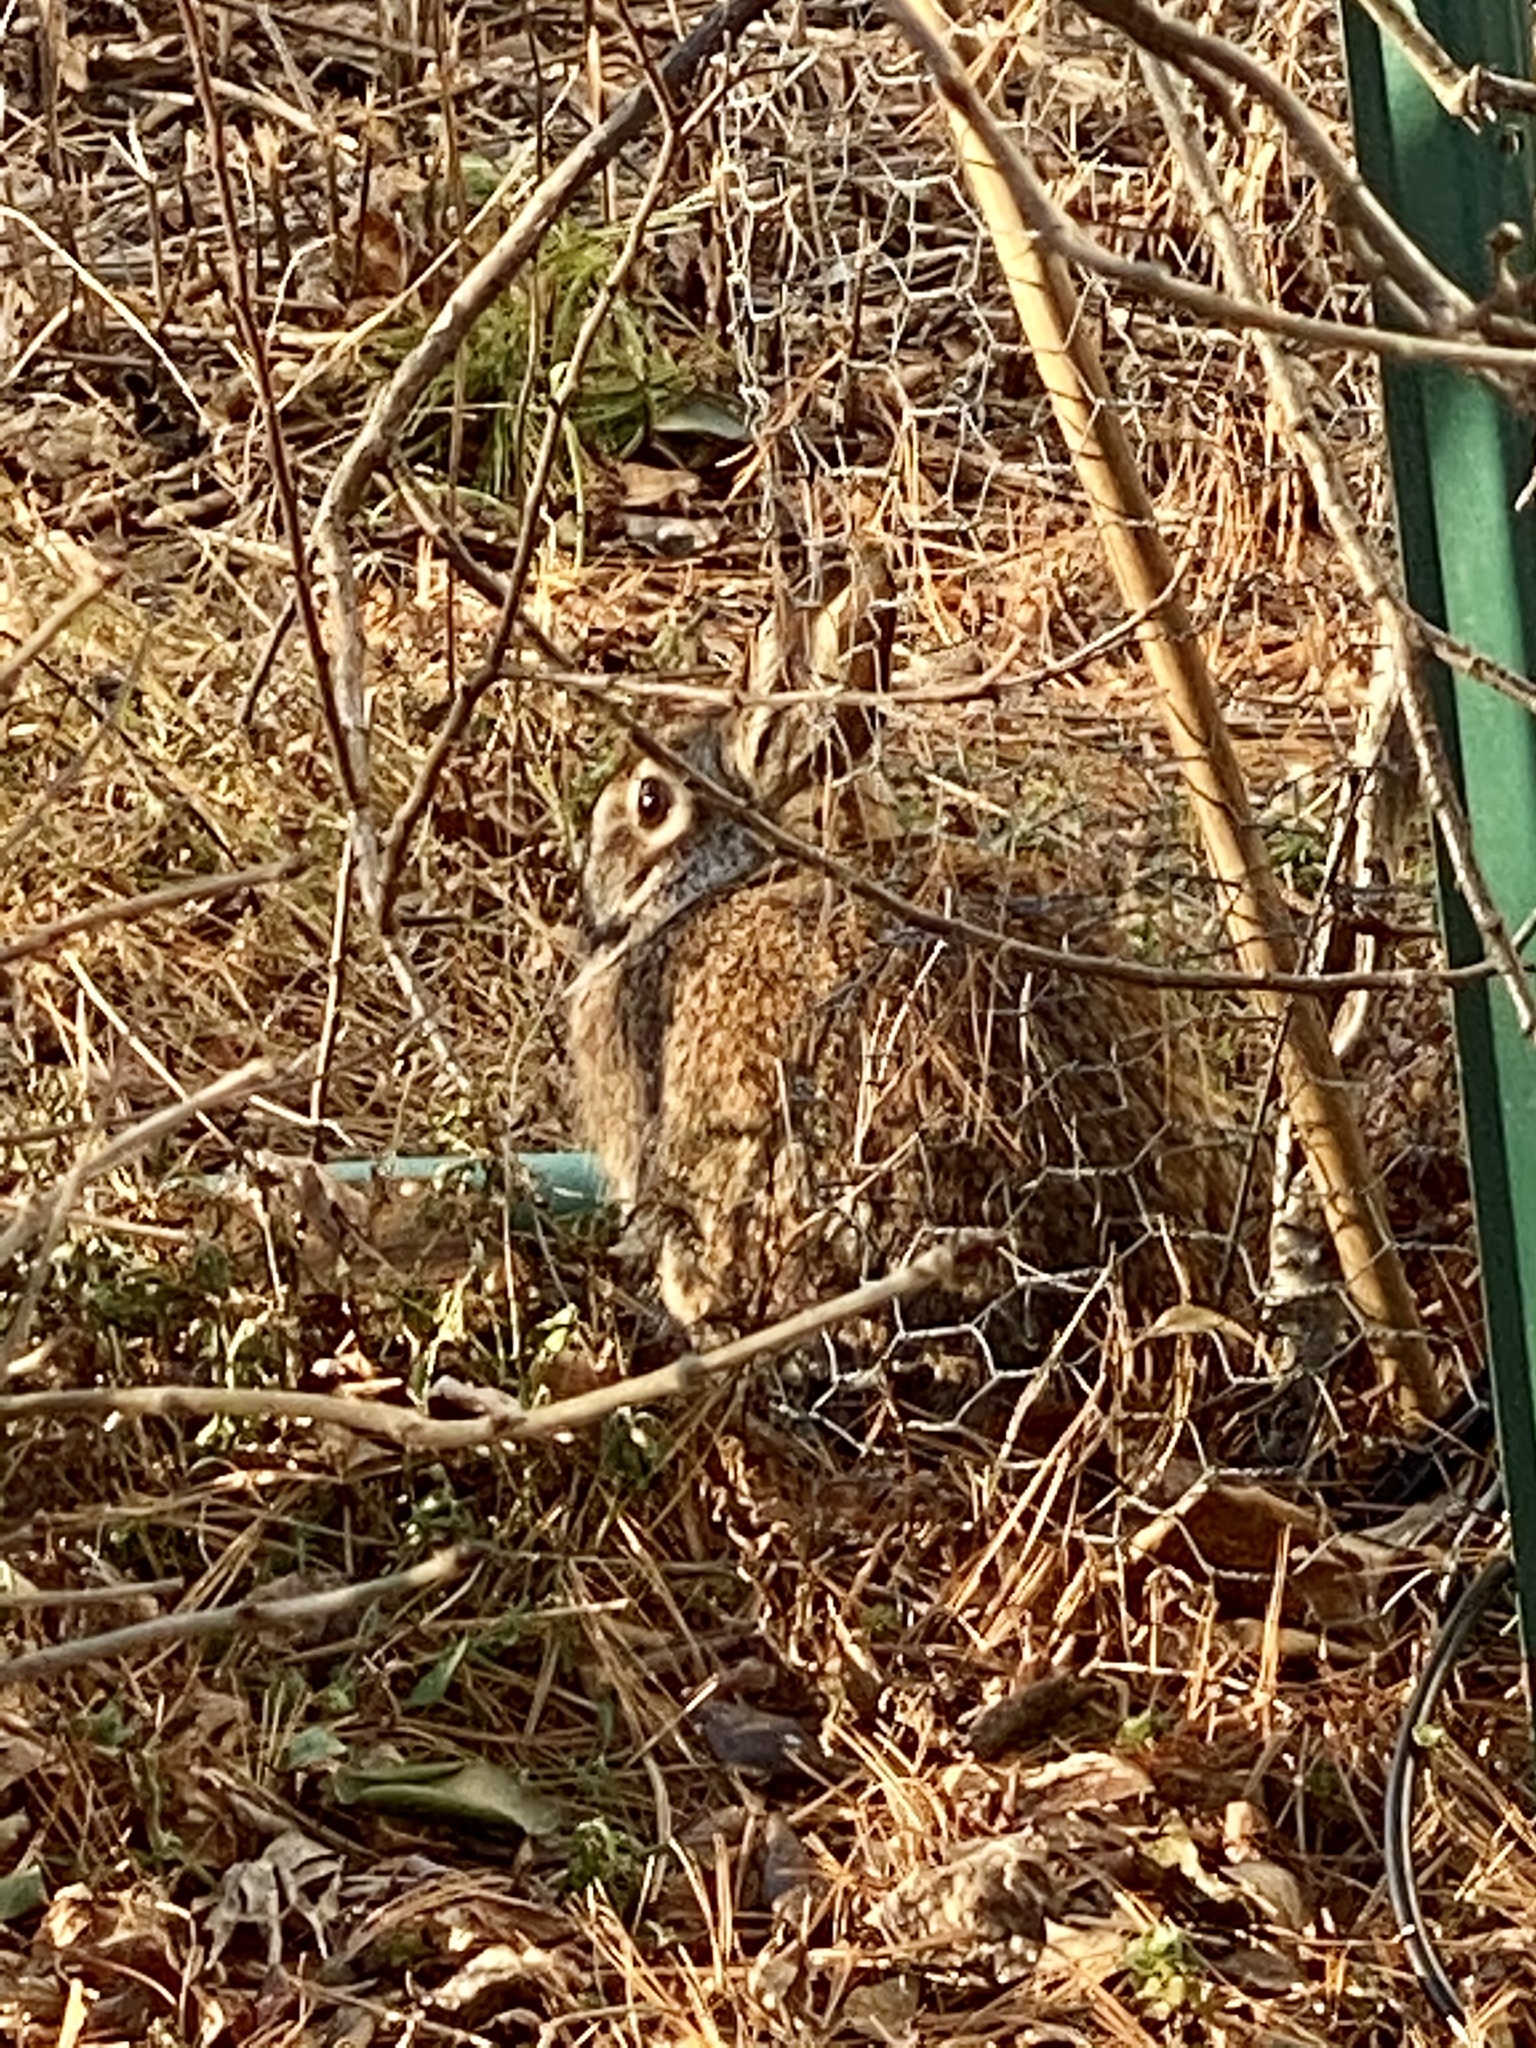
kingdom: Animalia
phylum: Chordata
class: Mammalia
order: Lagomorpha
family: Leporidae
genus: Sylvilagus
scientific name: Sylvilagus floridanus
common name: Eastern cottontail
